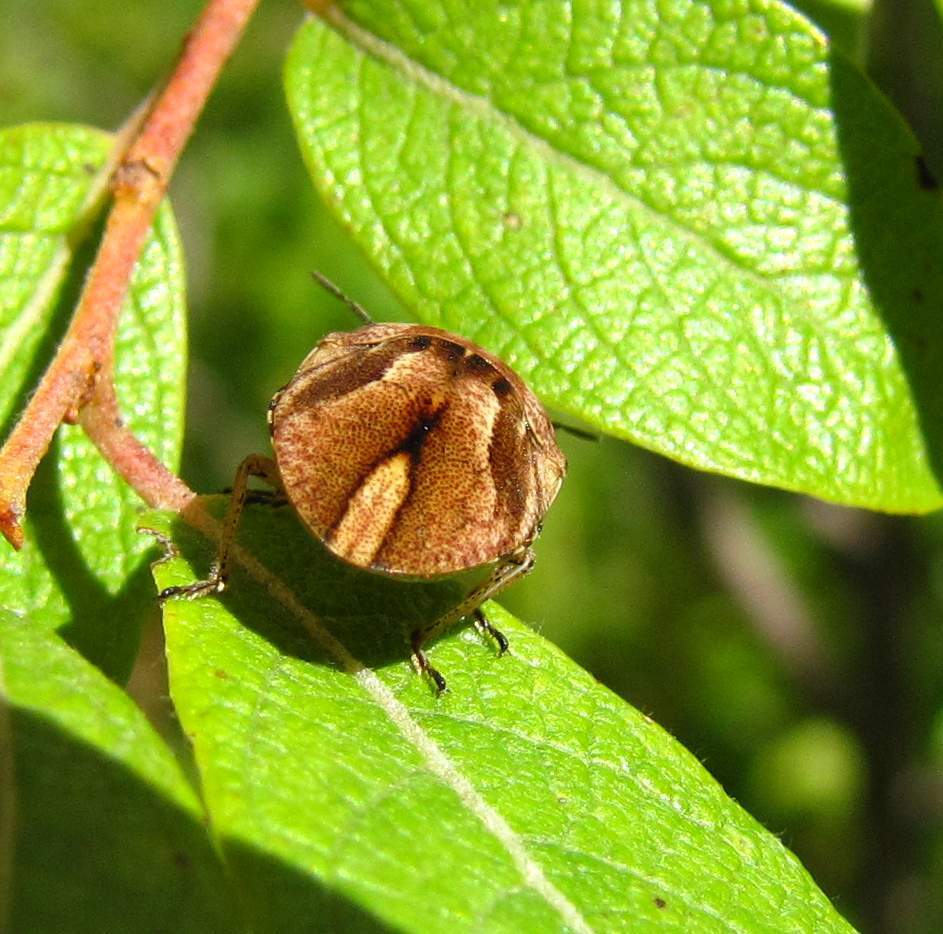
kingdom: Animalia
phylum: Arthropoda
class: Insecta
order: Hemiptera
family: Scutelleridae
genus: Homaemus
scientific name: Homaemus aeneifrons
